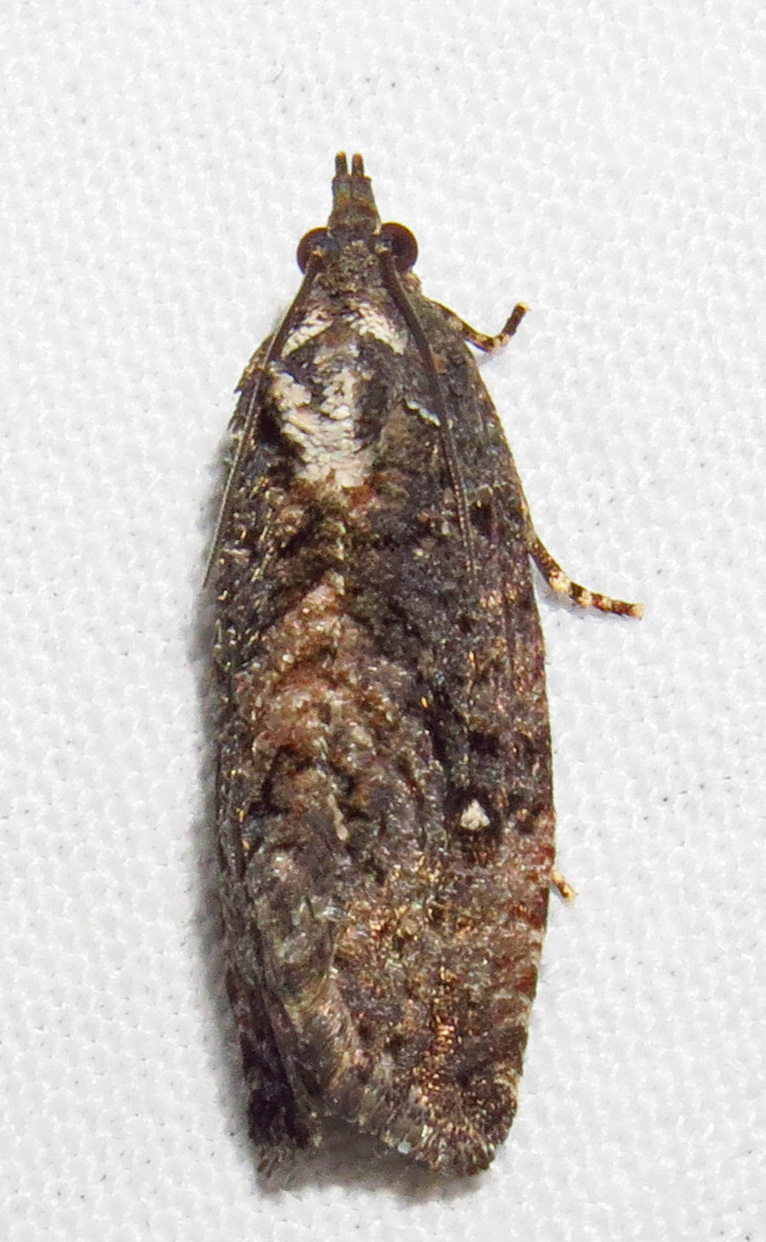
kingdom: Animalia
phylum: Arthropoda
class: Insecta
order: Lepidoptera
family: Tortricidae
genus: Gymnandrosoma
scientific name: Gymnandrosoma punctidiscanum
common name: Dotted ecdytolopha moth
